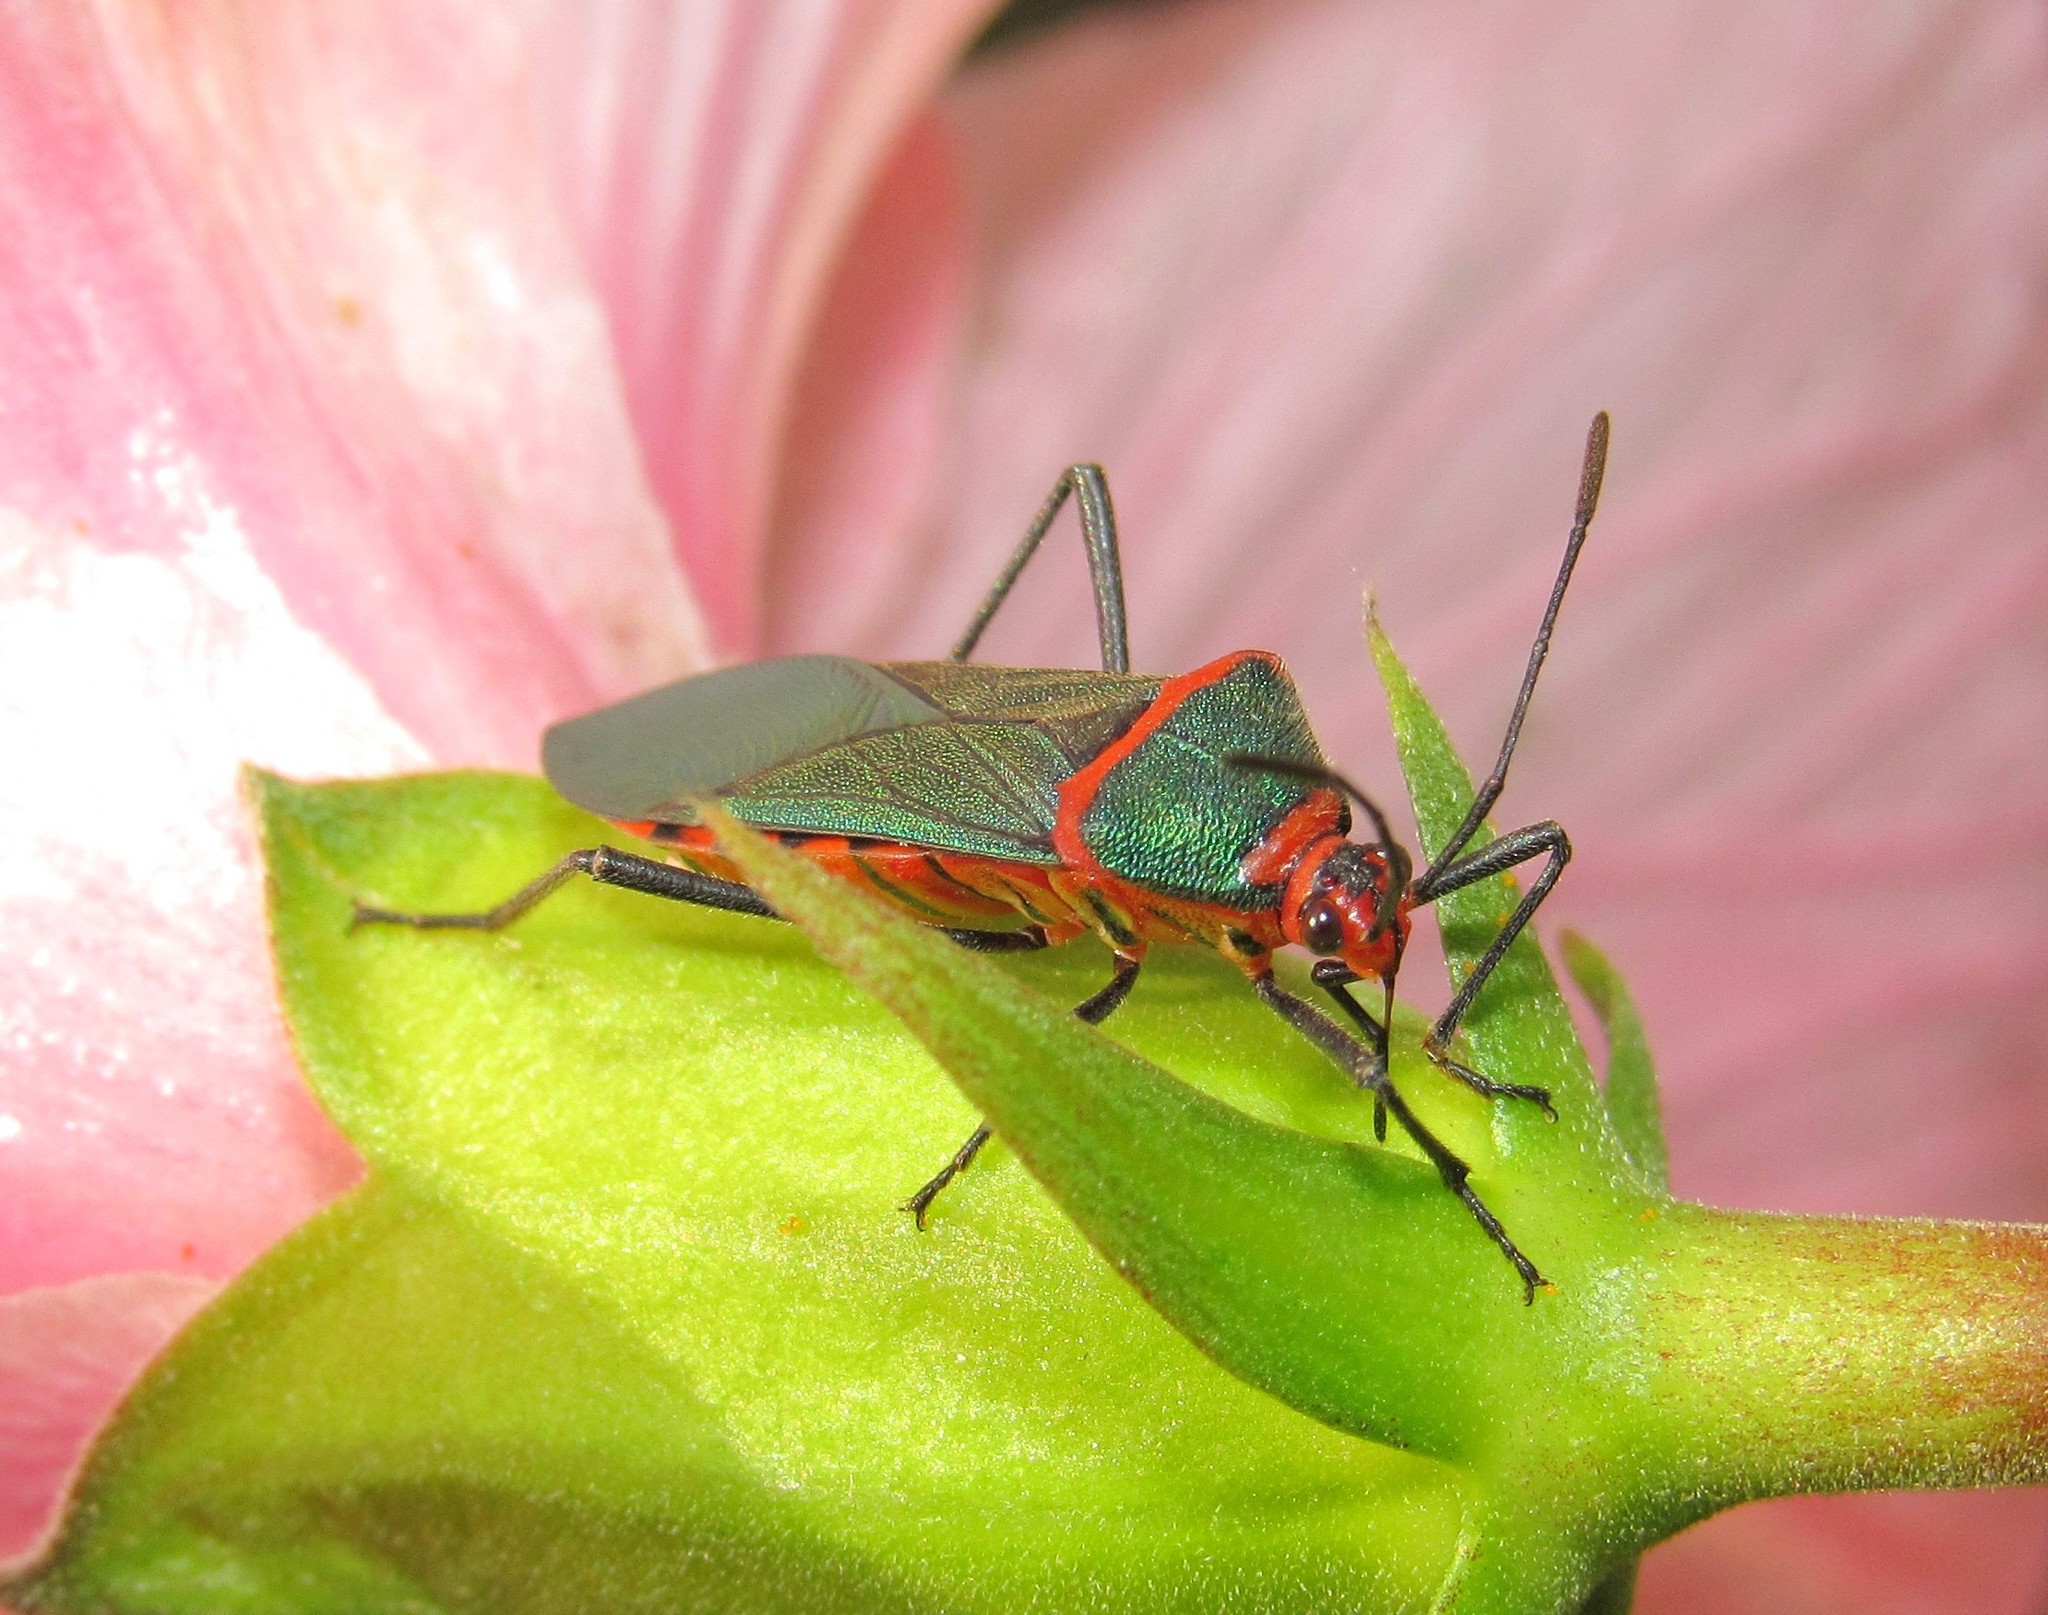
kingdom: Animalia
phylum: Arthropoda
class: Insecta
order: Hemiptera
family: Coreidae
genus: Sphictyrtus
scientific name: Sphictyrtus chrysis
